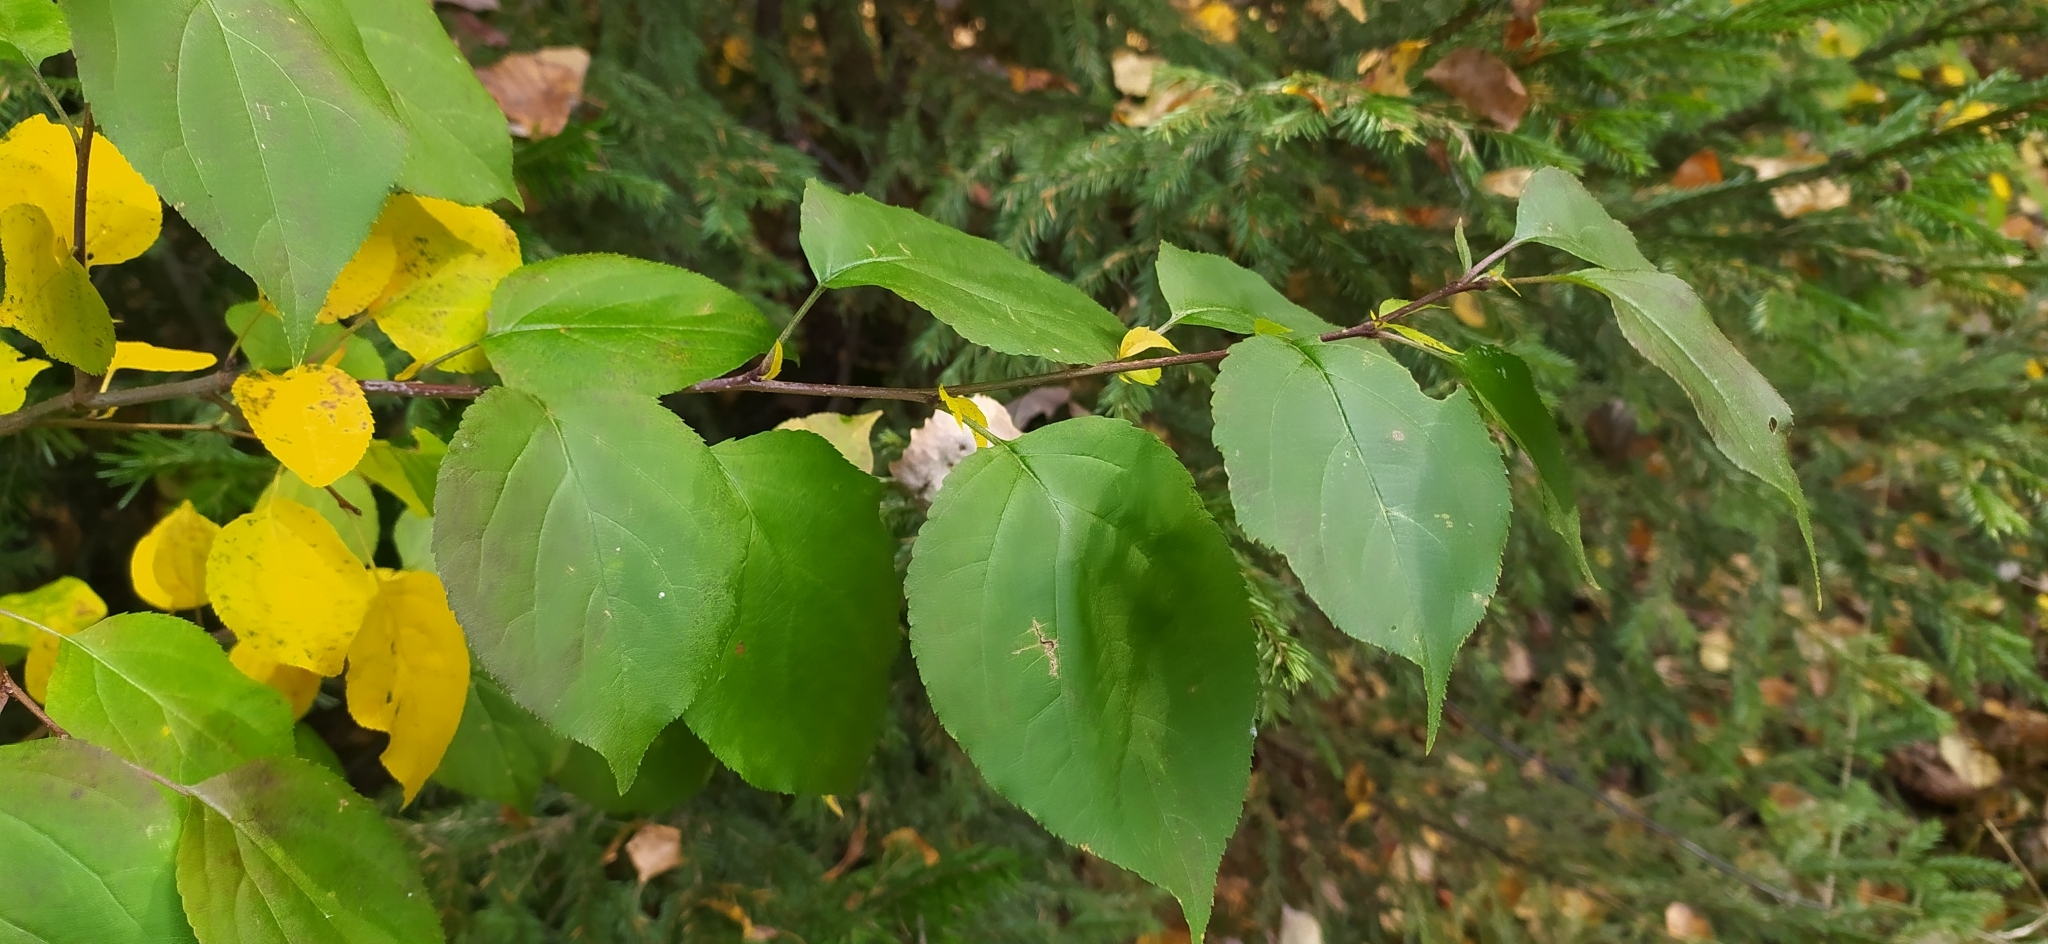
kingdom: Plantae
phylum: Tracheophyta
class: Magnoliopsida
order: Rosales
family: Rosaceae
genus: Malus
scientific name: Malus baccata
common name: Siberian crab
